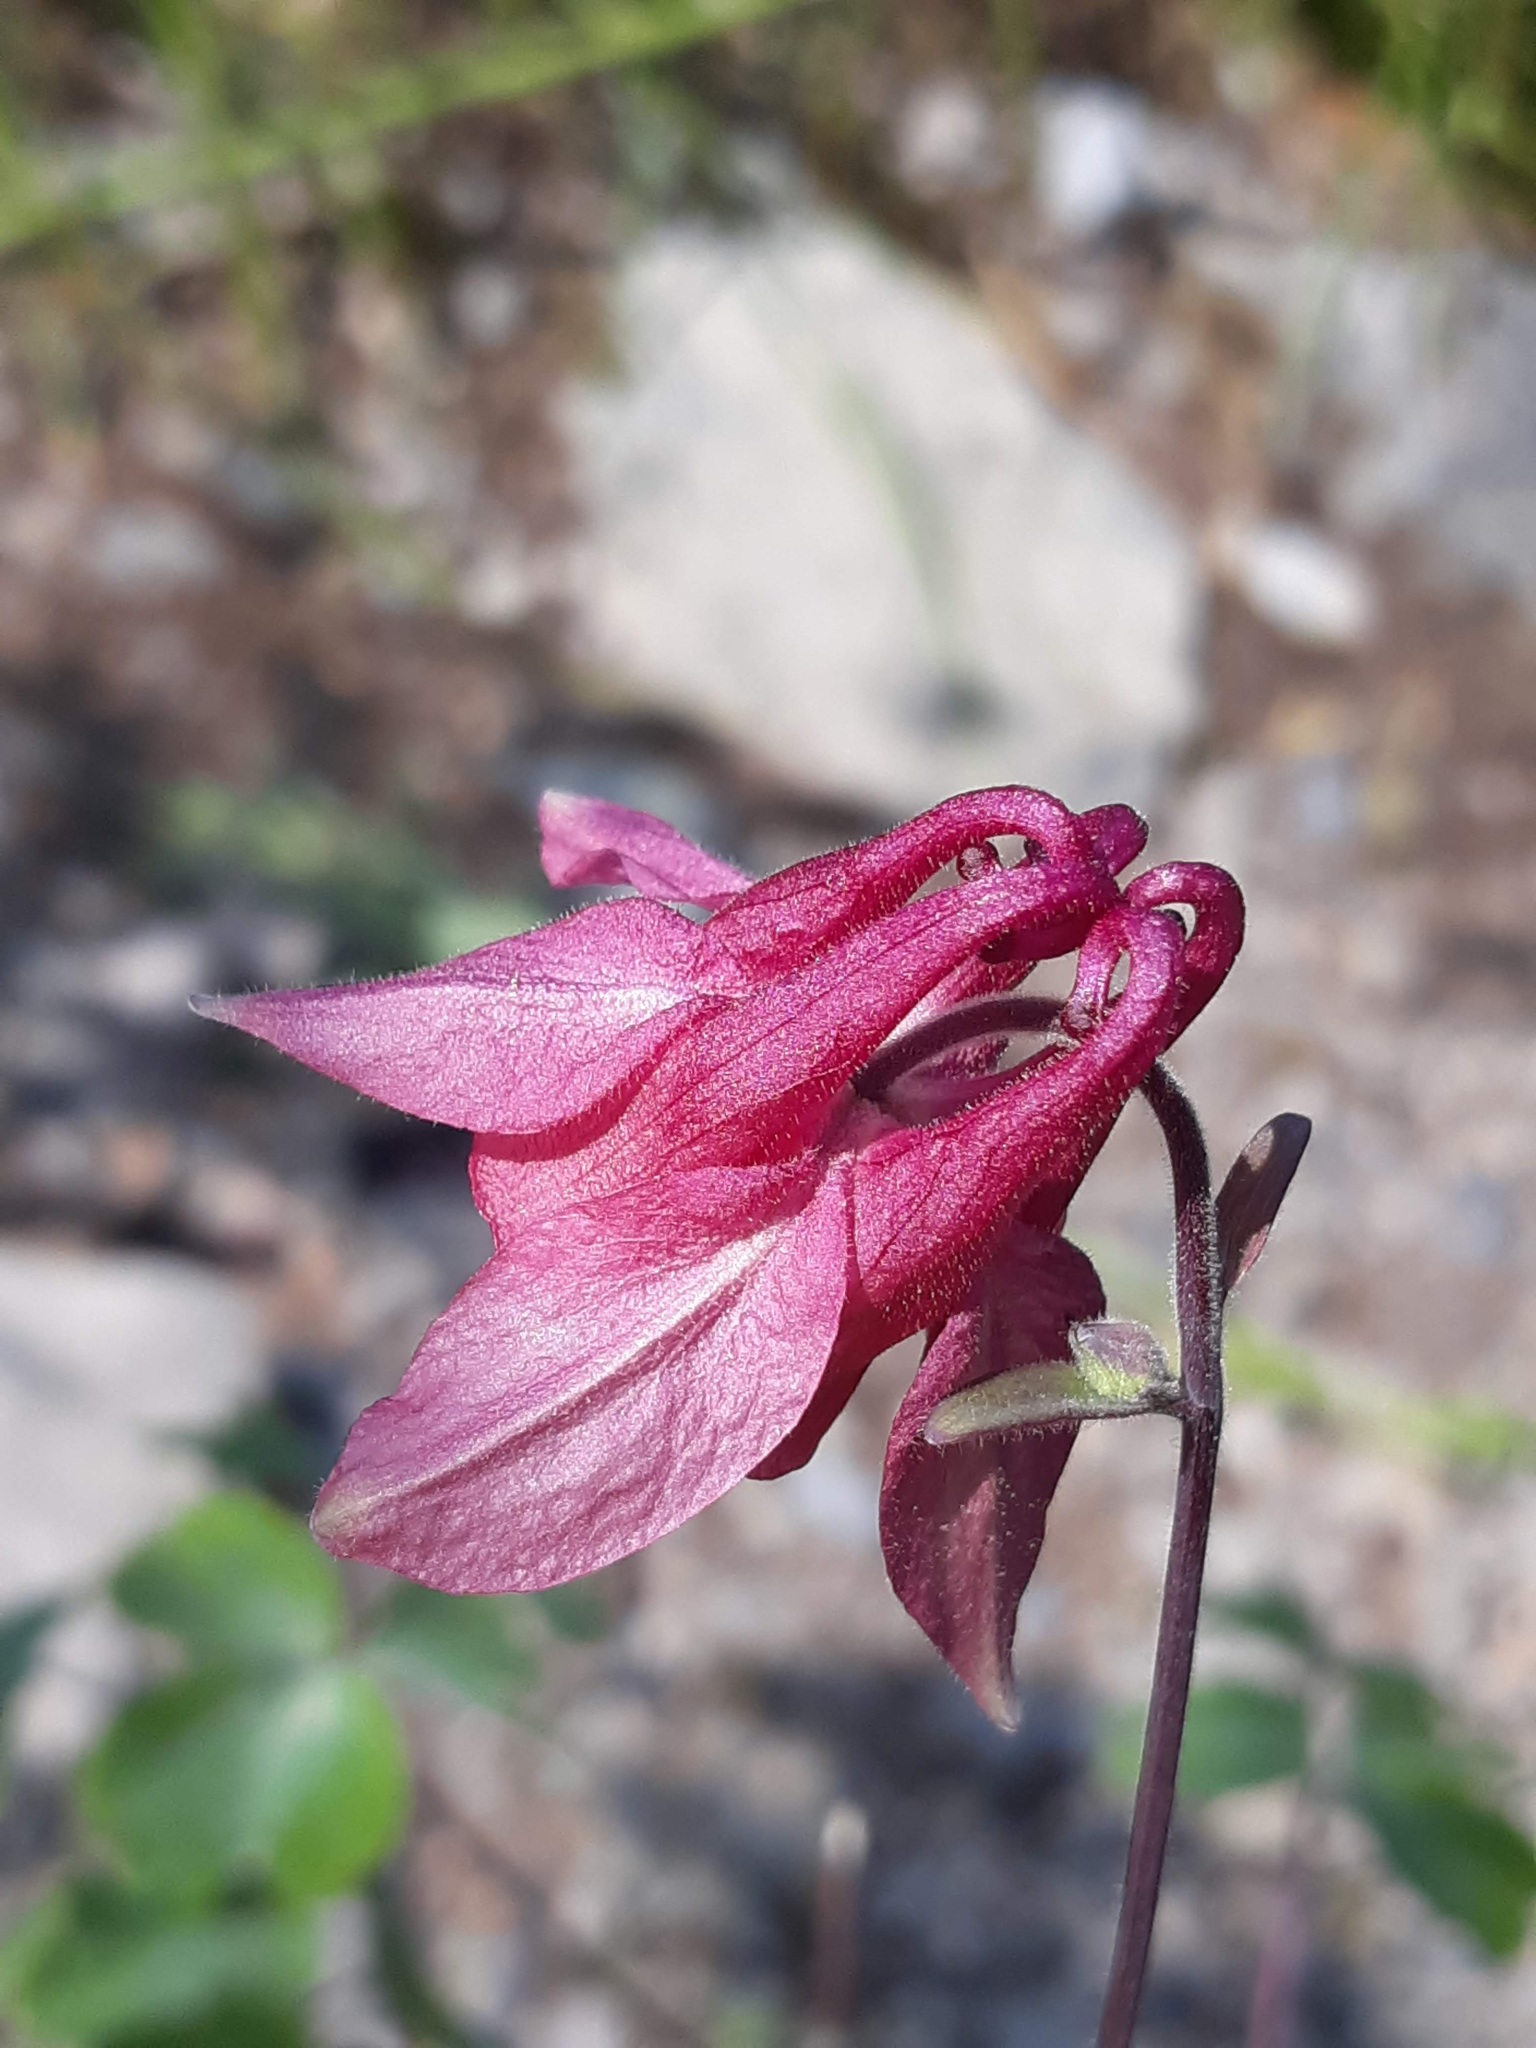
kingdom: Plantae
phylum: Tracheophyta
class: Magnoliopsida
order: Ranunculales
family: Ranunculaceae
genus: Aquilegia
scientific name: Aquilegia
